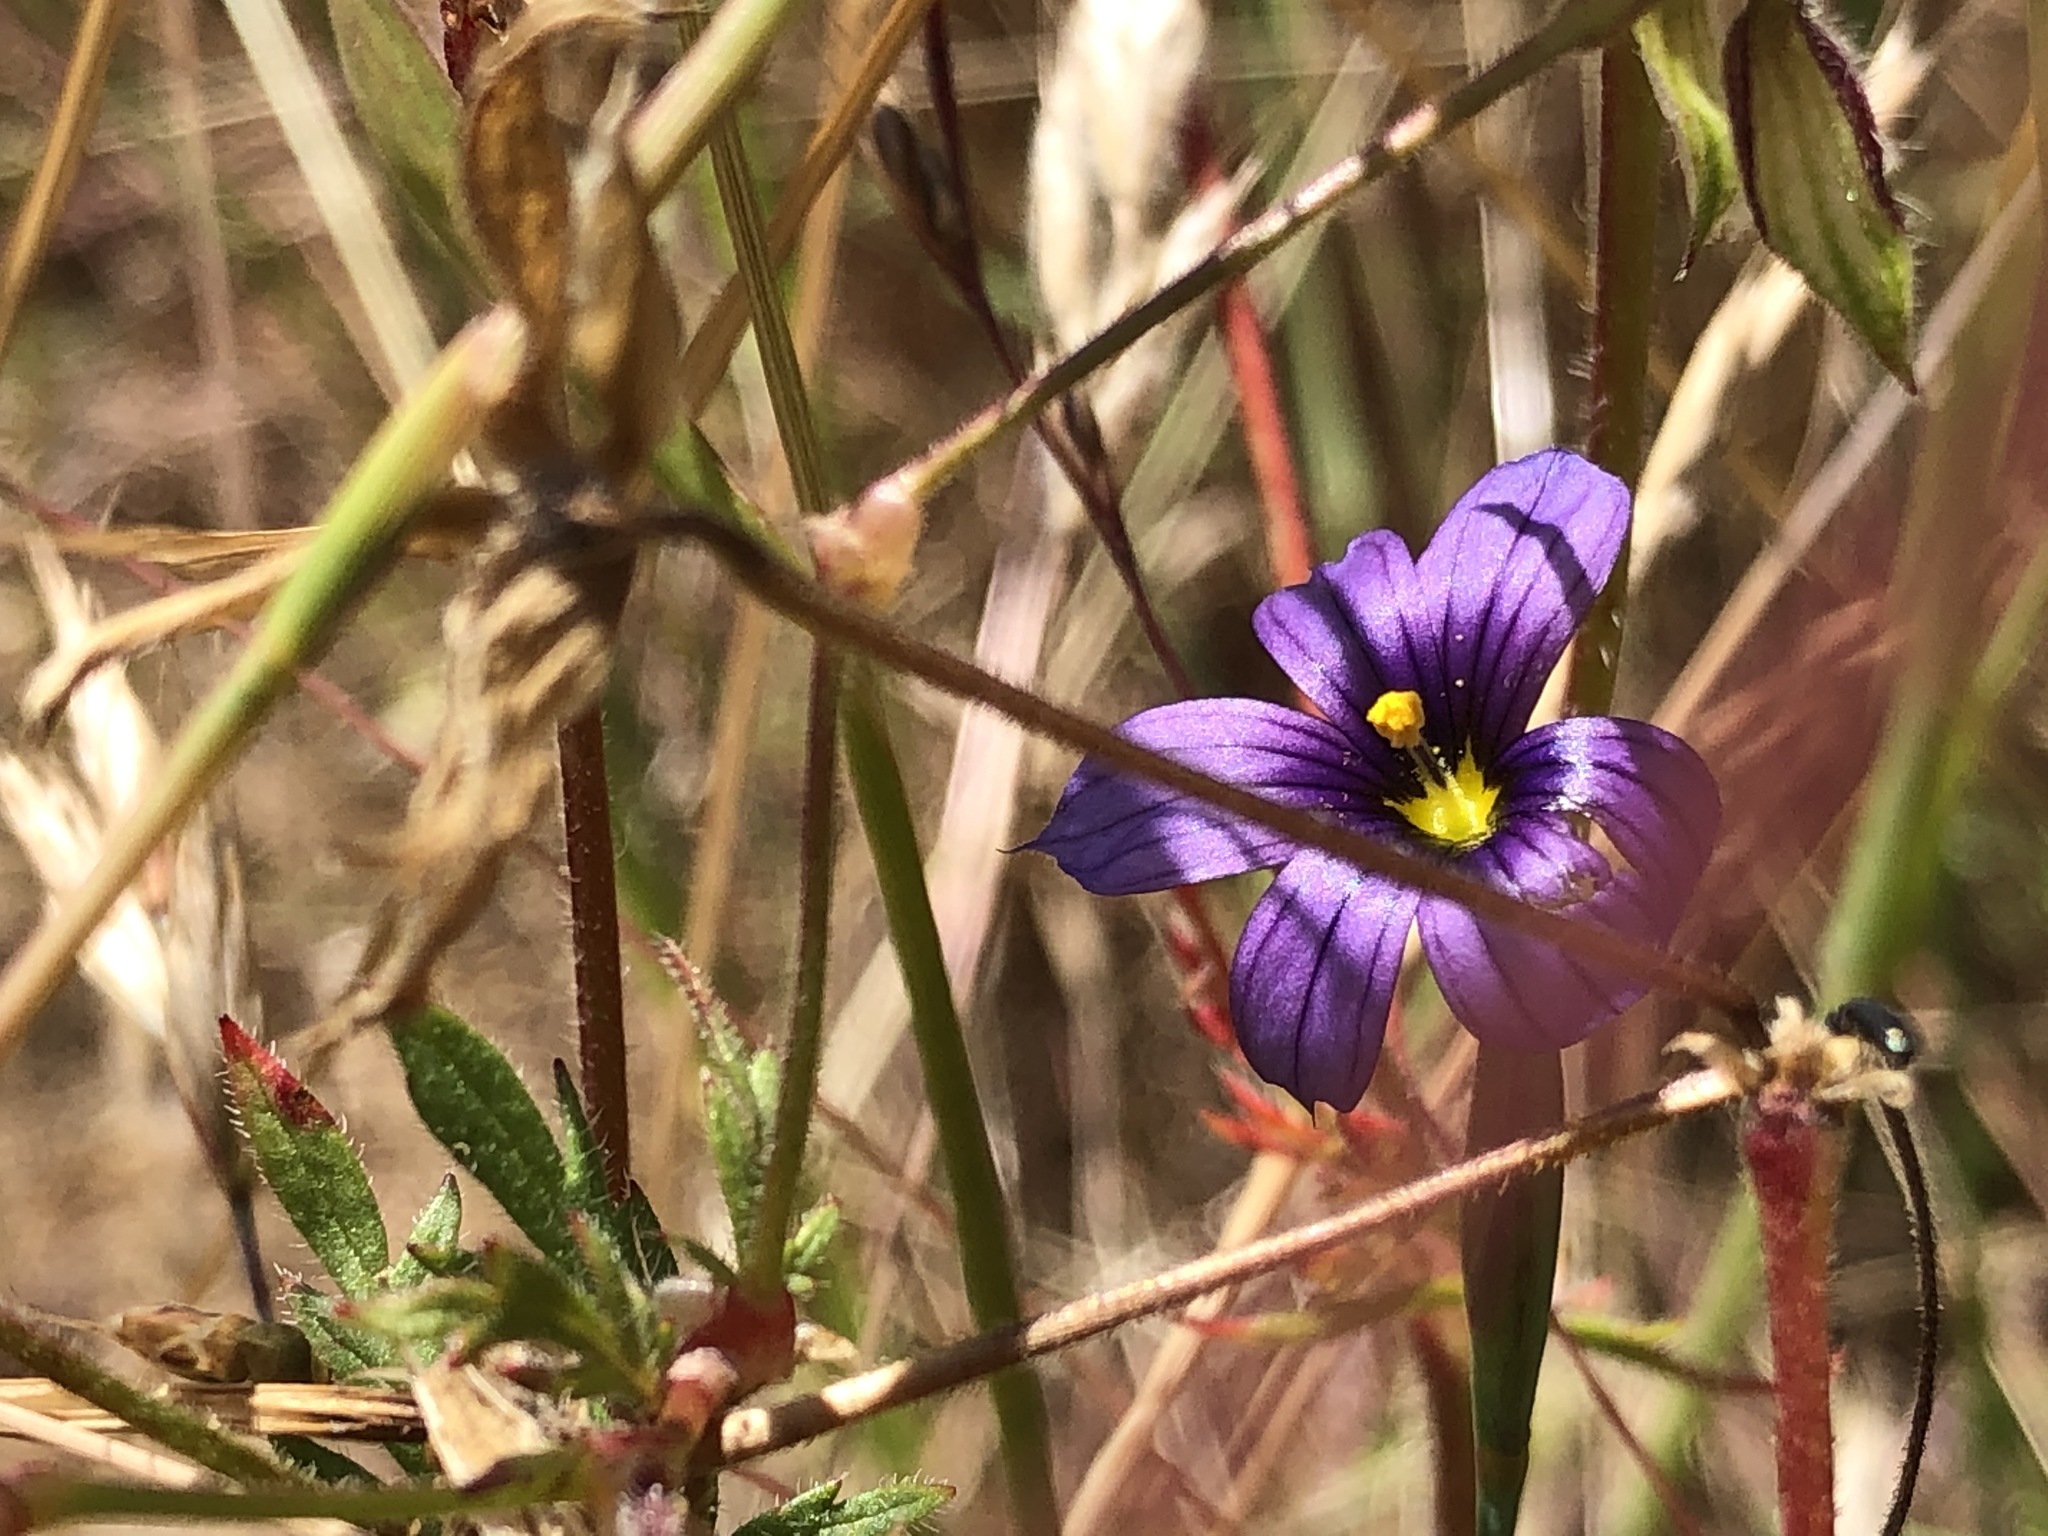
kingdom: Plantae
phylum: Tracheophyta
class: Liliopsida
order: Asparagales
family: Iridaceae
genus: Sisyrinchium
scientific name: Sisyrinchium bellum
